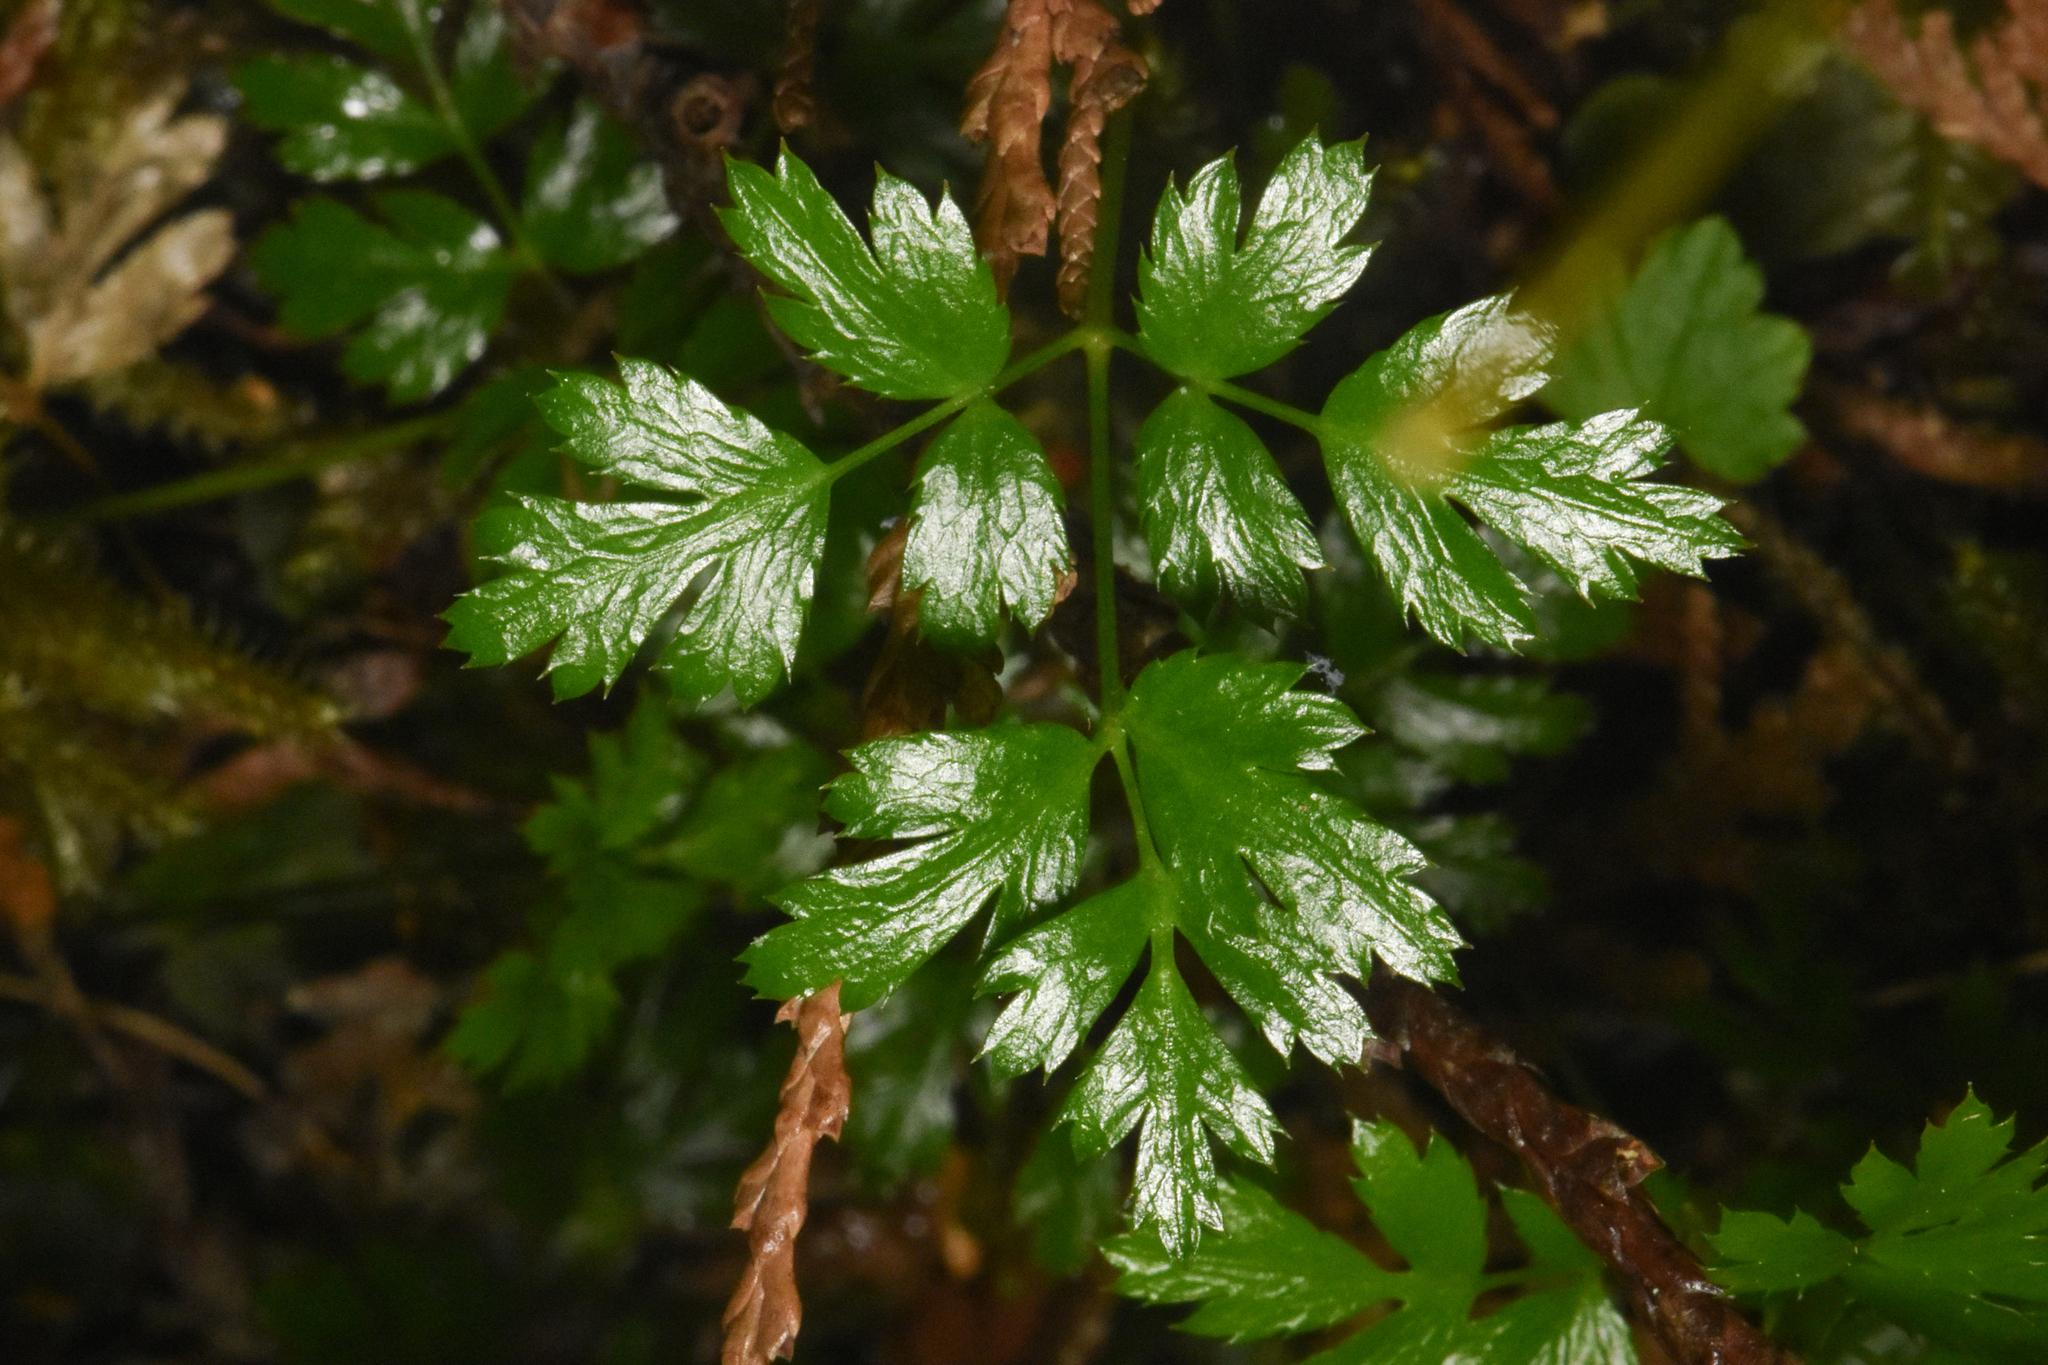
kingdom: Plantae
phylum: Tracheophyta
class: Magnoliopsida
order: Ranunculales
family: Ranunculaceae
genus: Coptis
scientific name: Coptis aspleniifolia
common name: Fern-leaved goldthread
